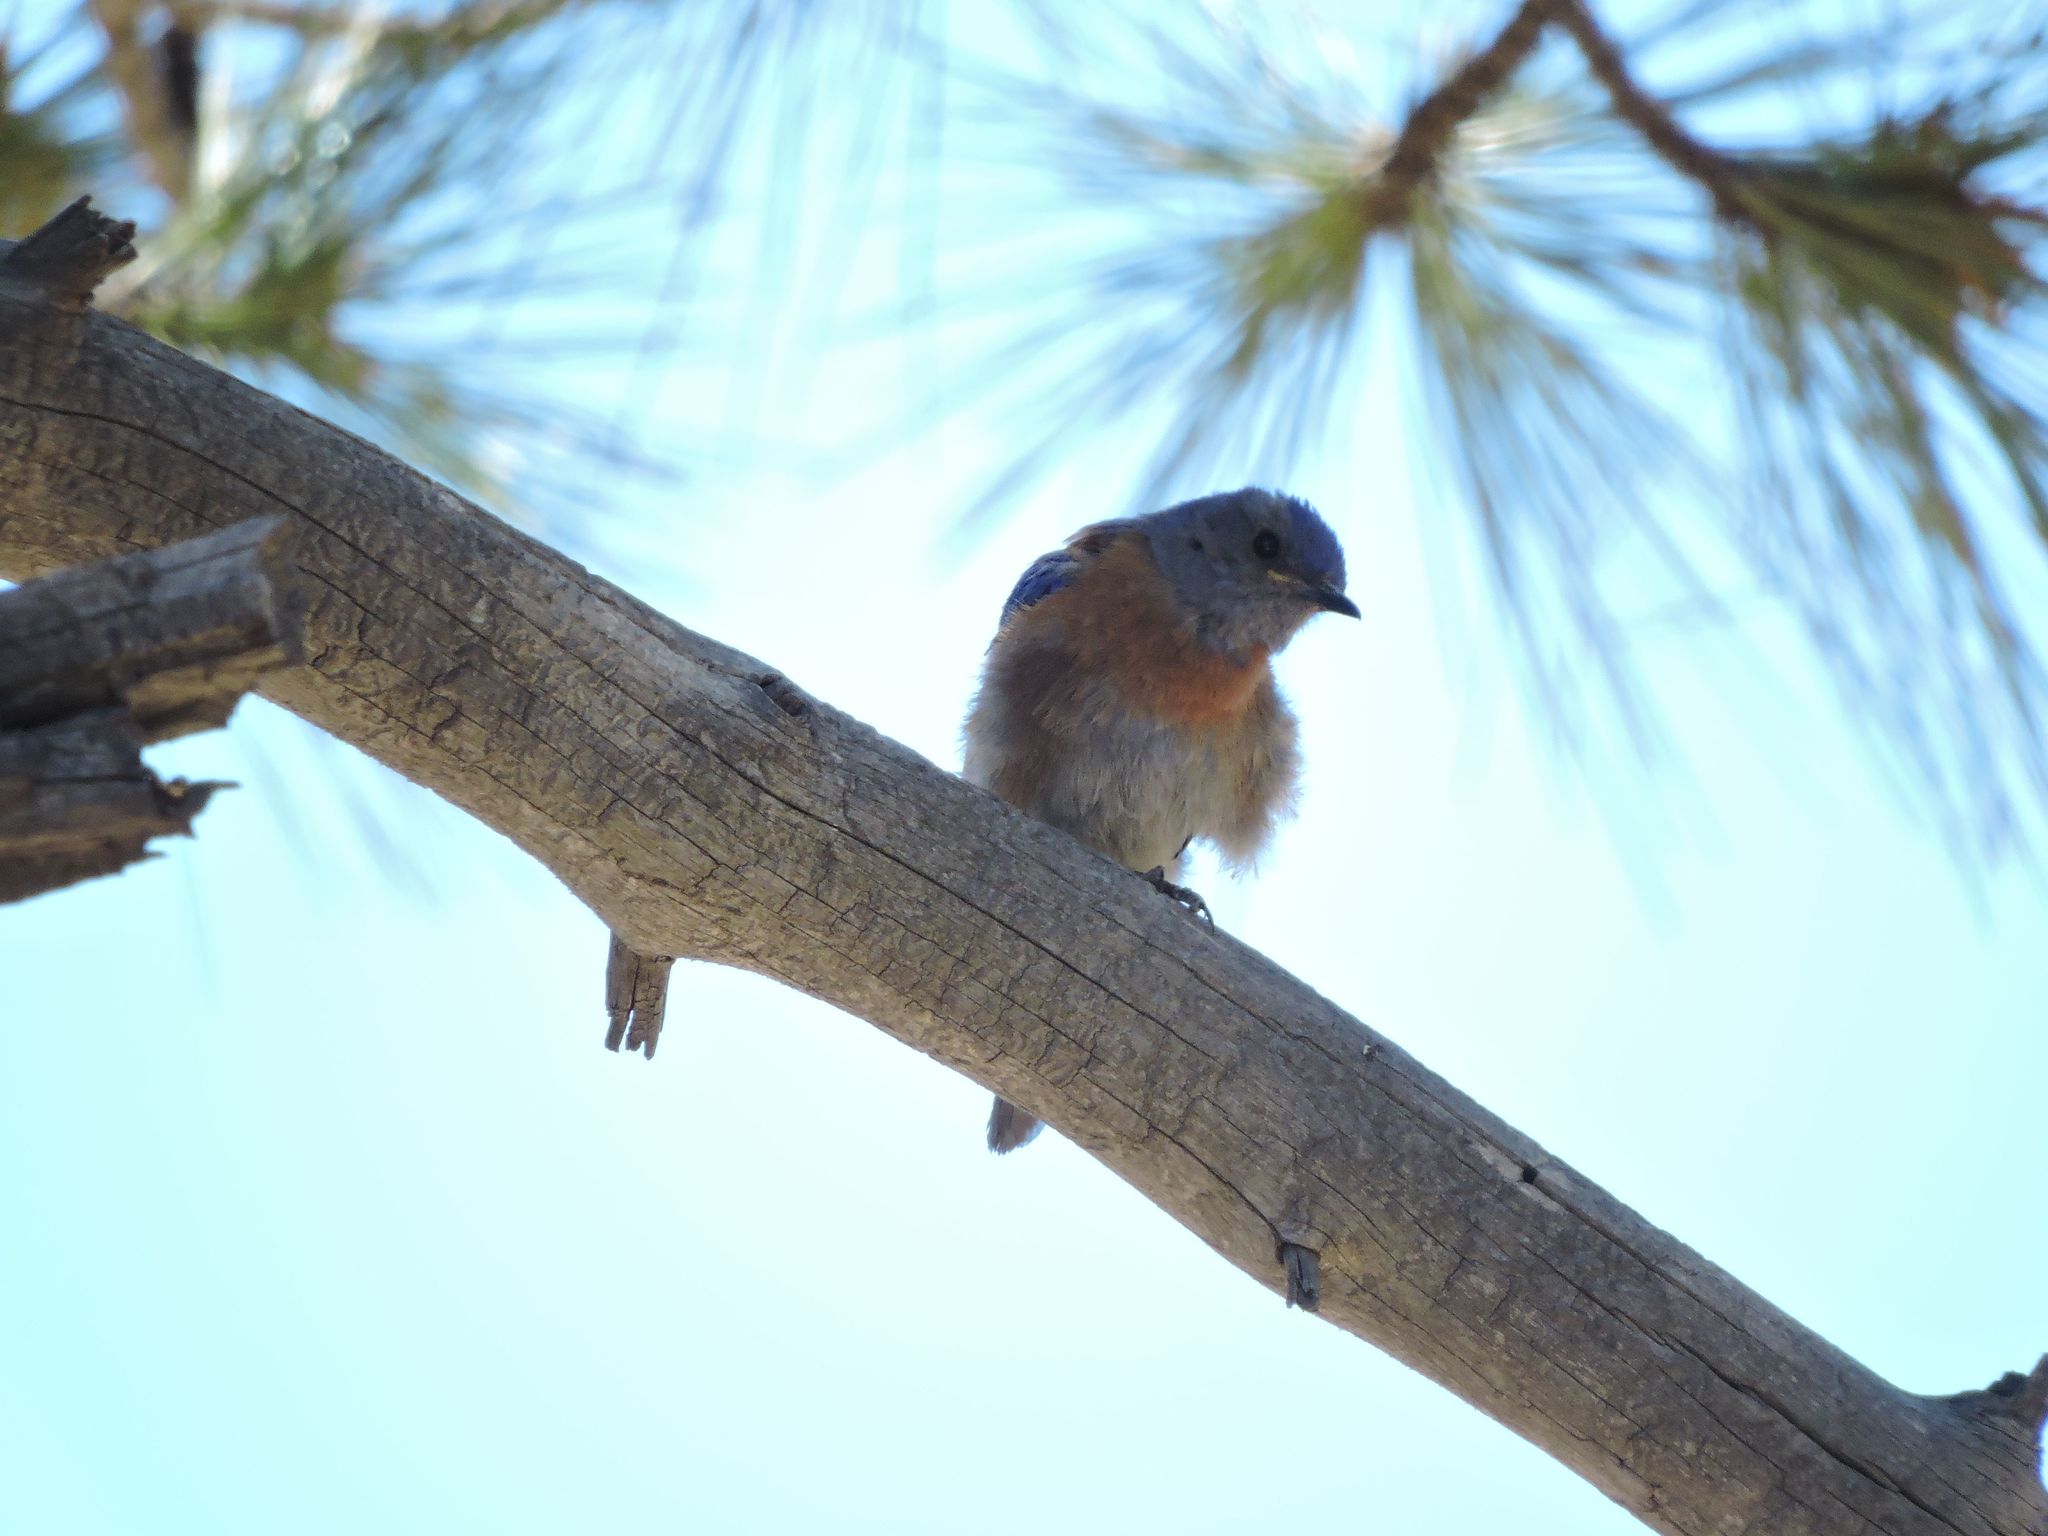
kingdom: Animalia
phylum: Chordata
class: Aves
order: Passeriformes
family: Turdidae
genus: Sialia
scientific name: Sialia mexicana
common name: Western bluebird
